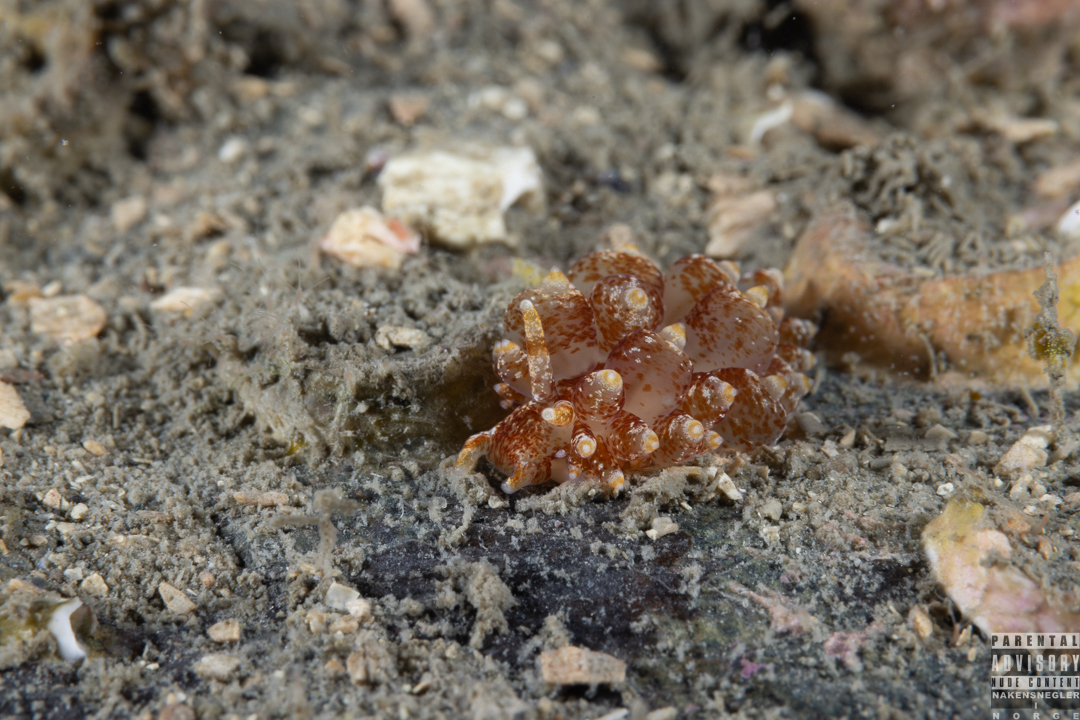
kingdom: Animalia
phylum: Mollusca
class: Gastropoda
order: Nudibranchia
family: Eubranchidae
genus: Amphorina
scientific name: Amphorina pallida
